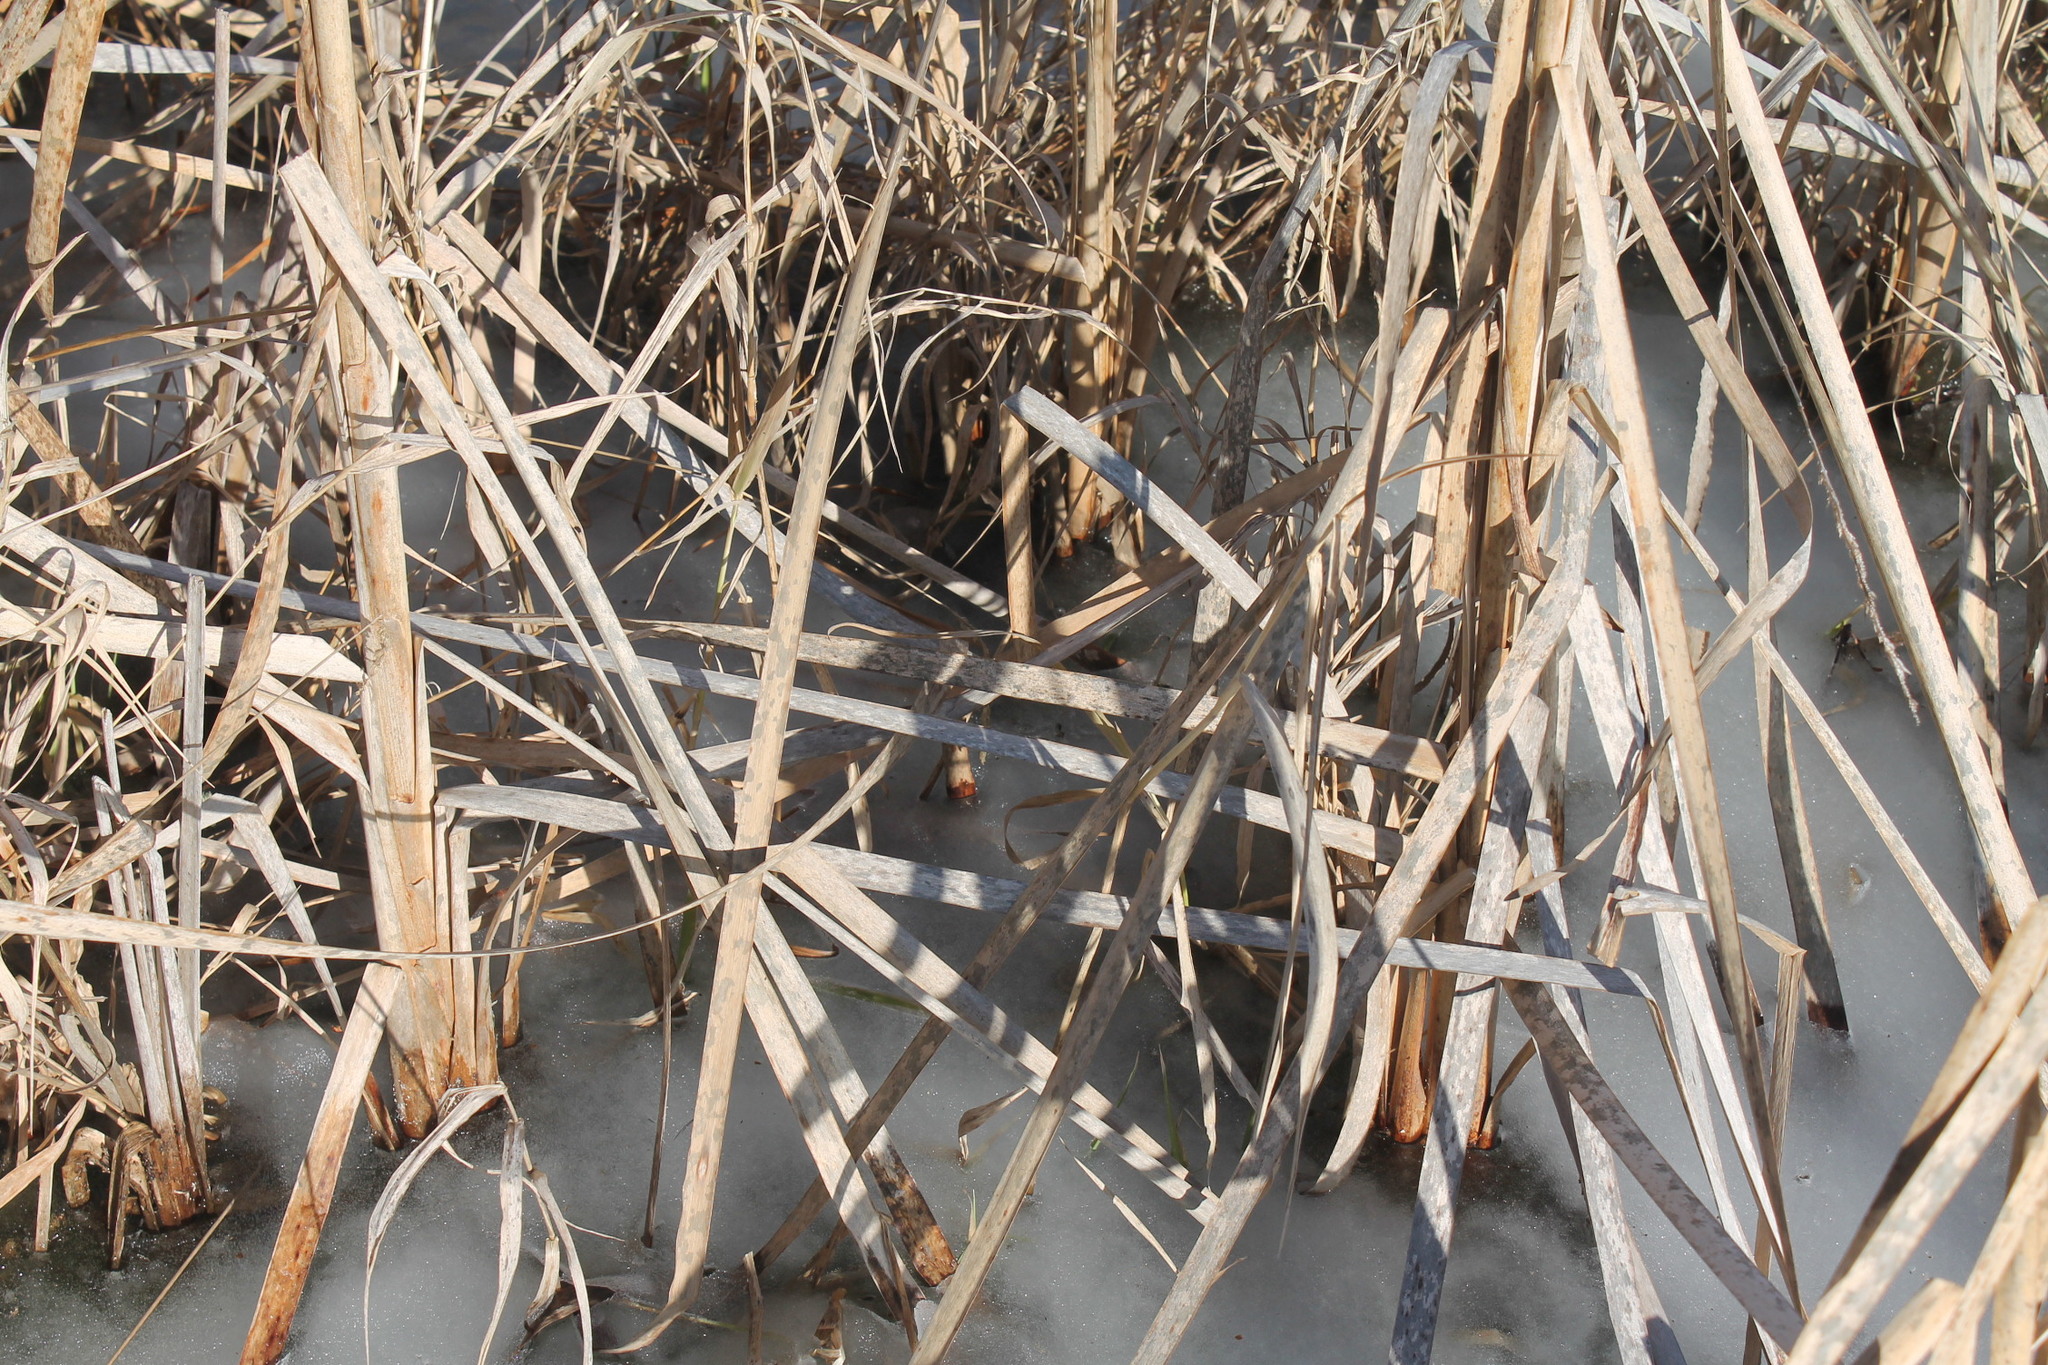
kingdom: Plantae
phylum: Tracheophyta
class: Liliopsida
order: Poales
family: Typhaceae
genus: Typha
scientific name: Typha latifolia
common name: Broadleaf cattail
